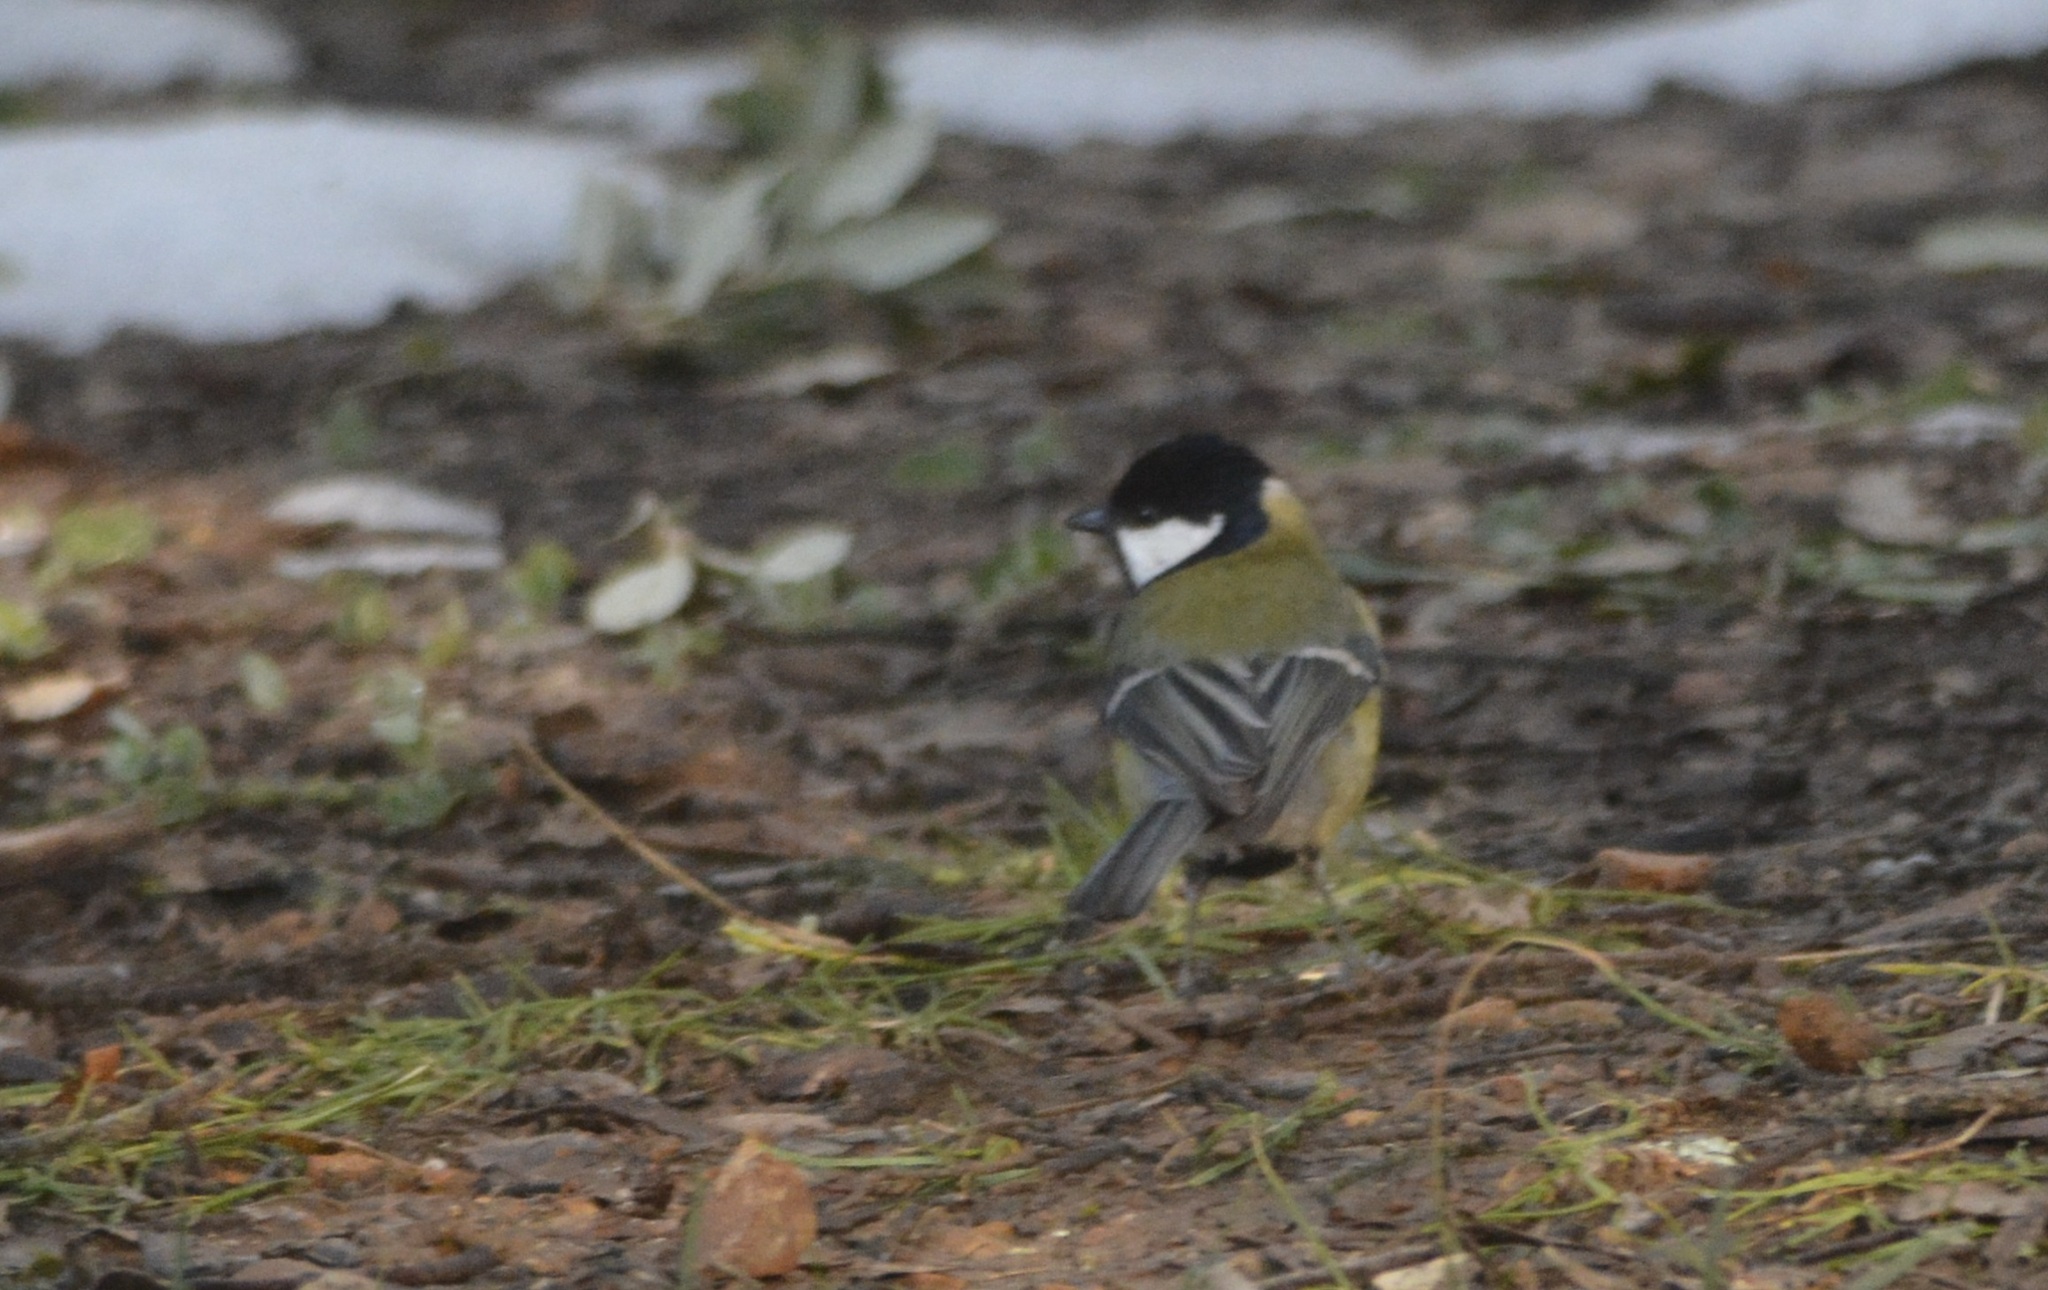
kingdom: Animalia
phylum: Chordata
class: Aves
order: Passeriformes
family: Paridae
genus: Parus
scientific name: Parus major
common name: Great tit
